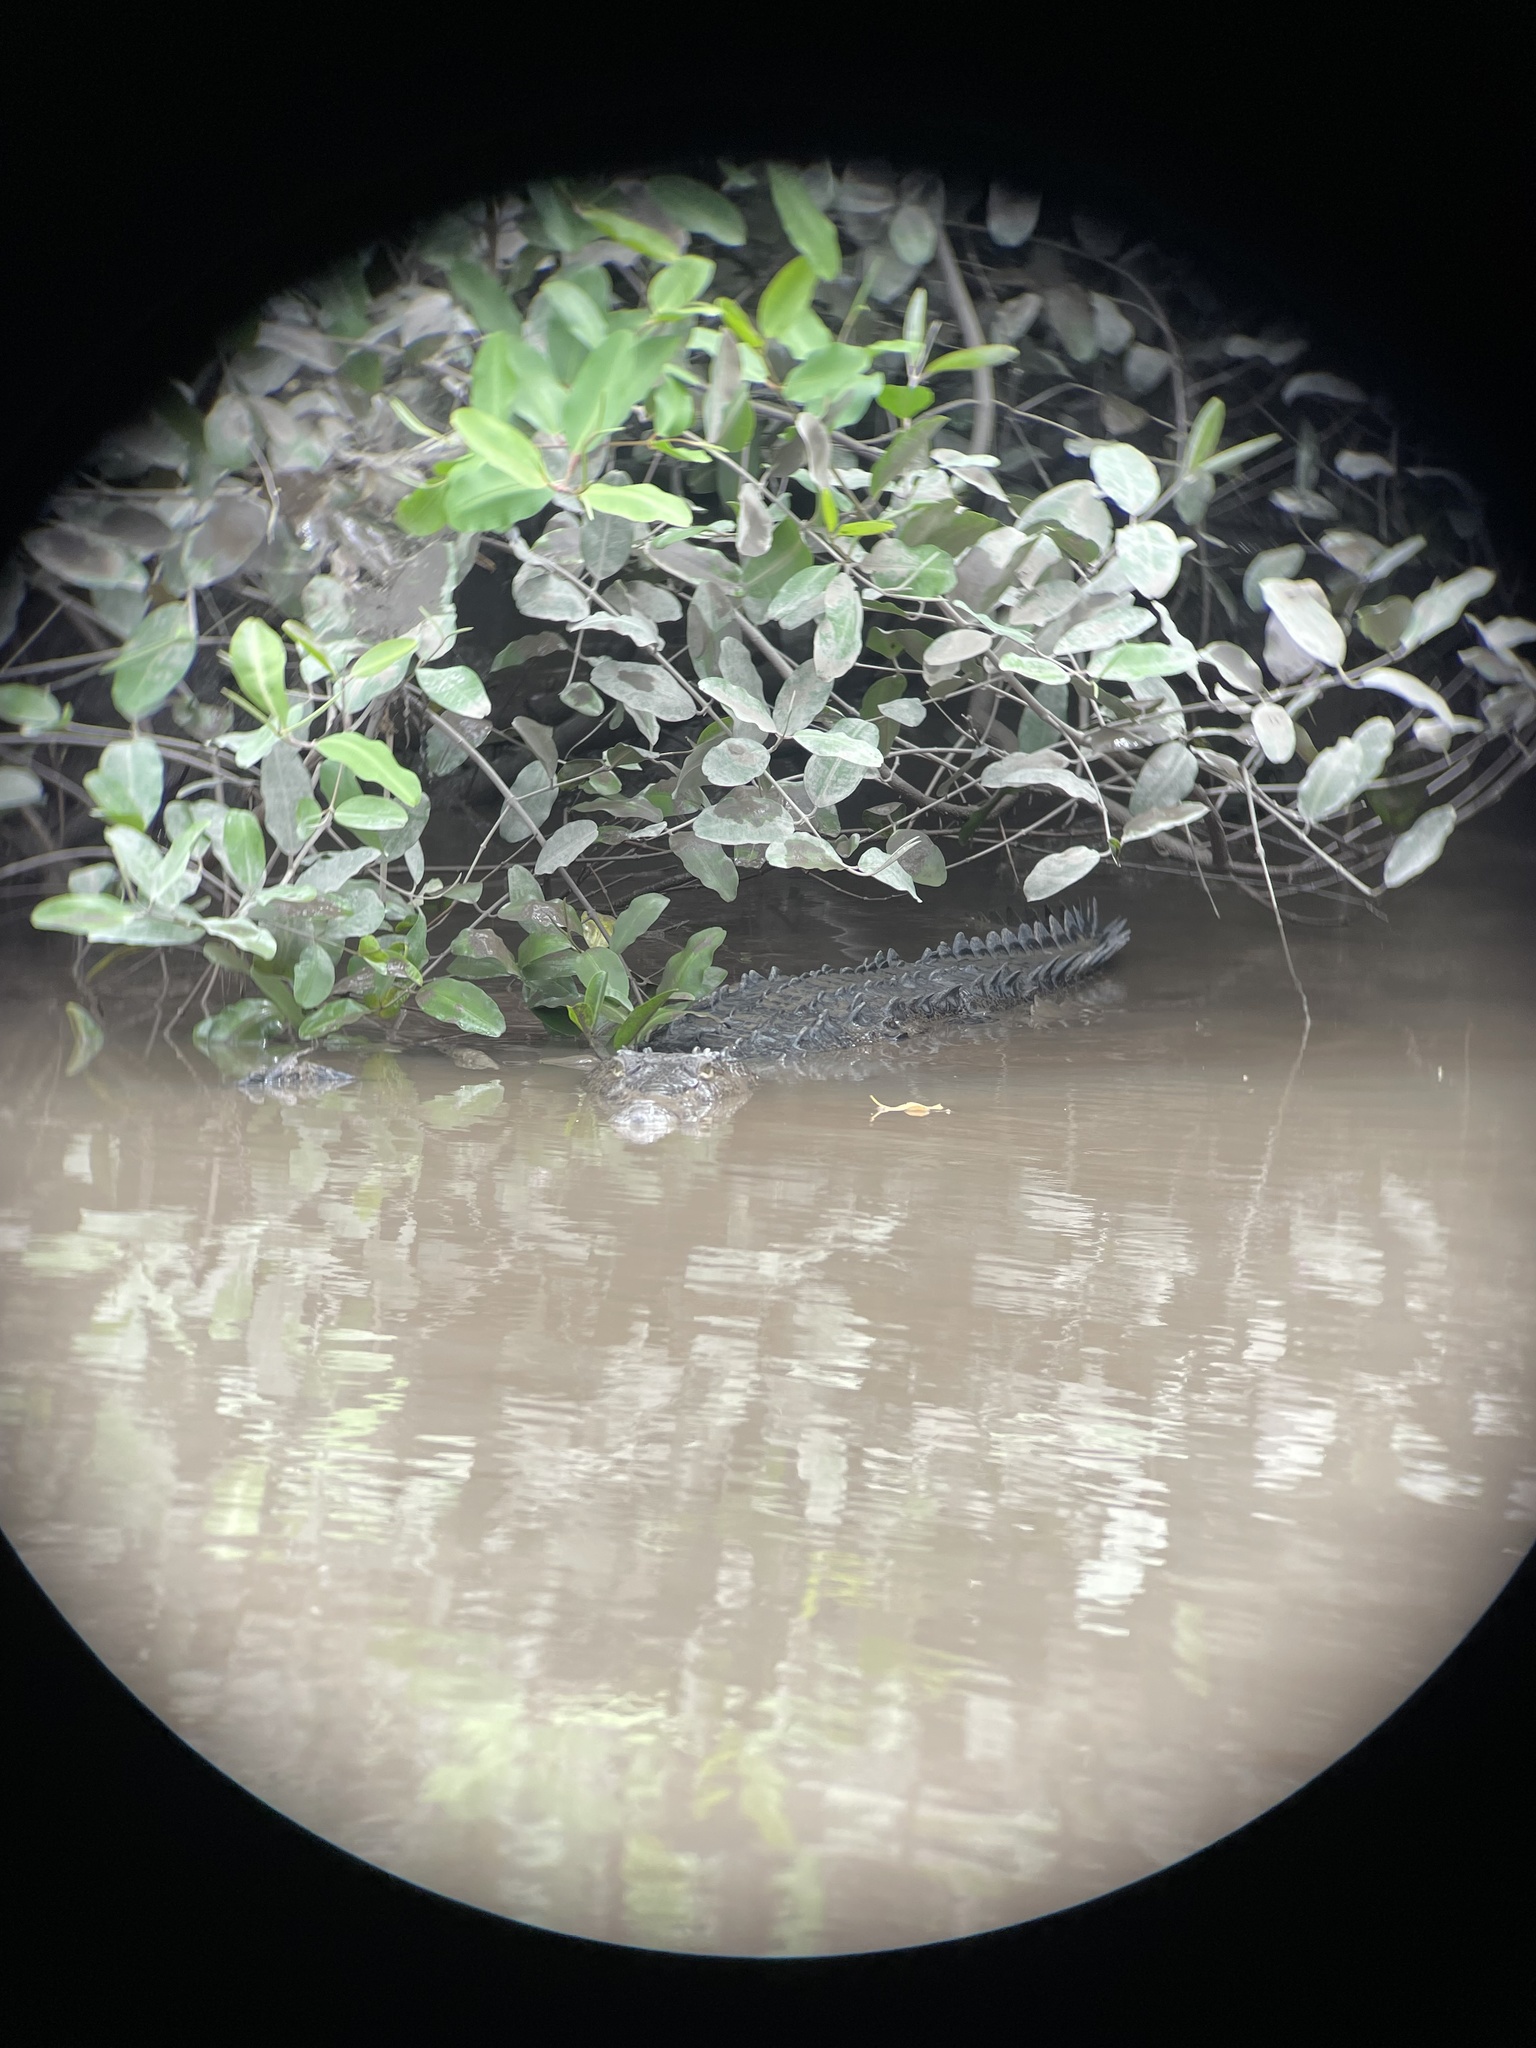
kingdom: Animalia
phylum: Chordata
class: Crocodylia
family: Crocodylidae
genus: Crocodylus
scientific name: Crocodylus acutus
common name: American crocodile
